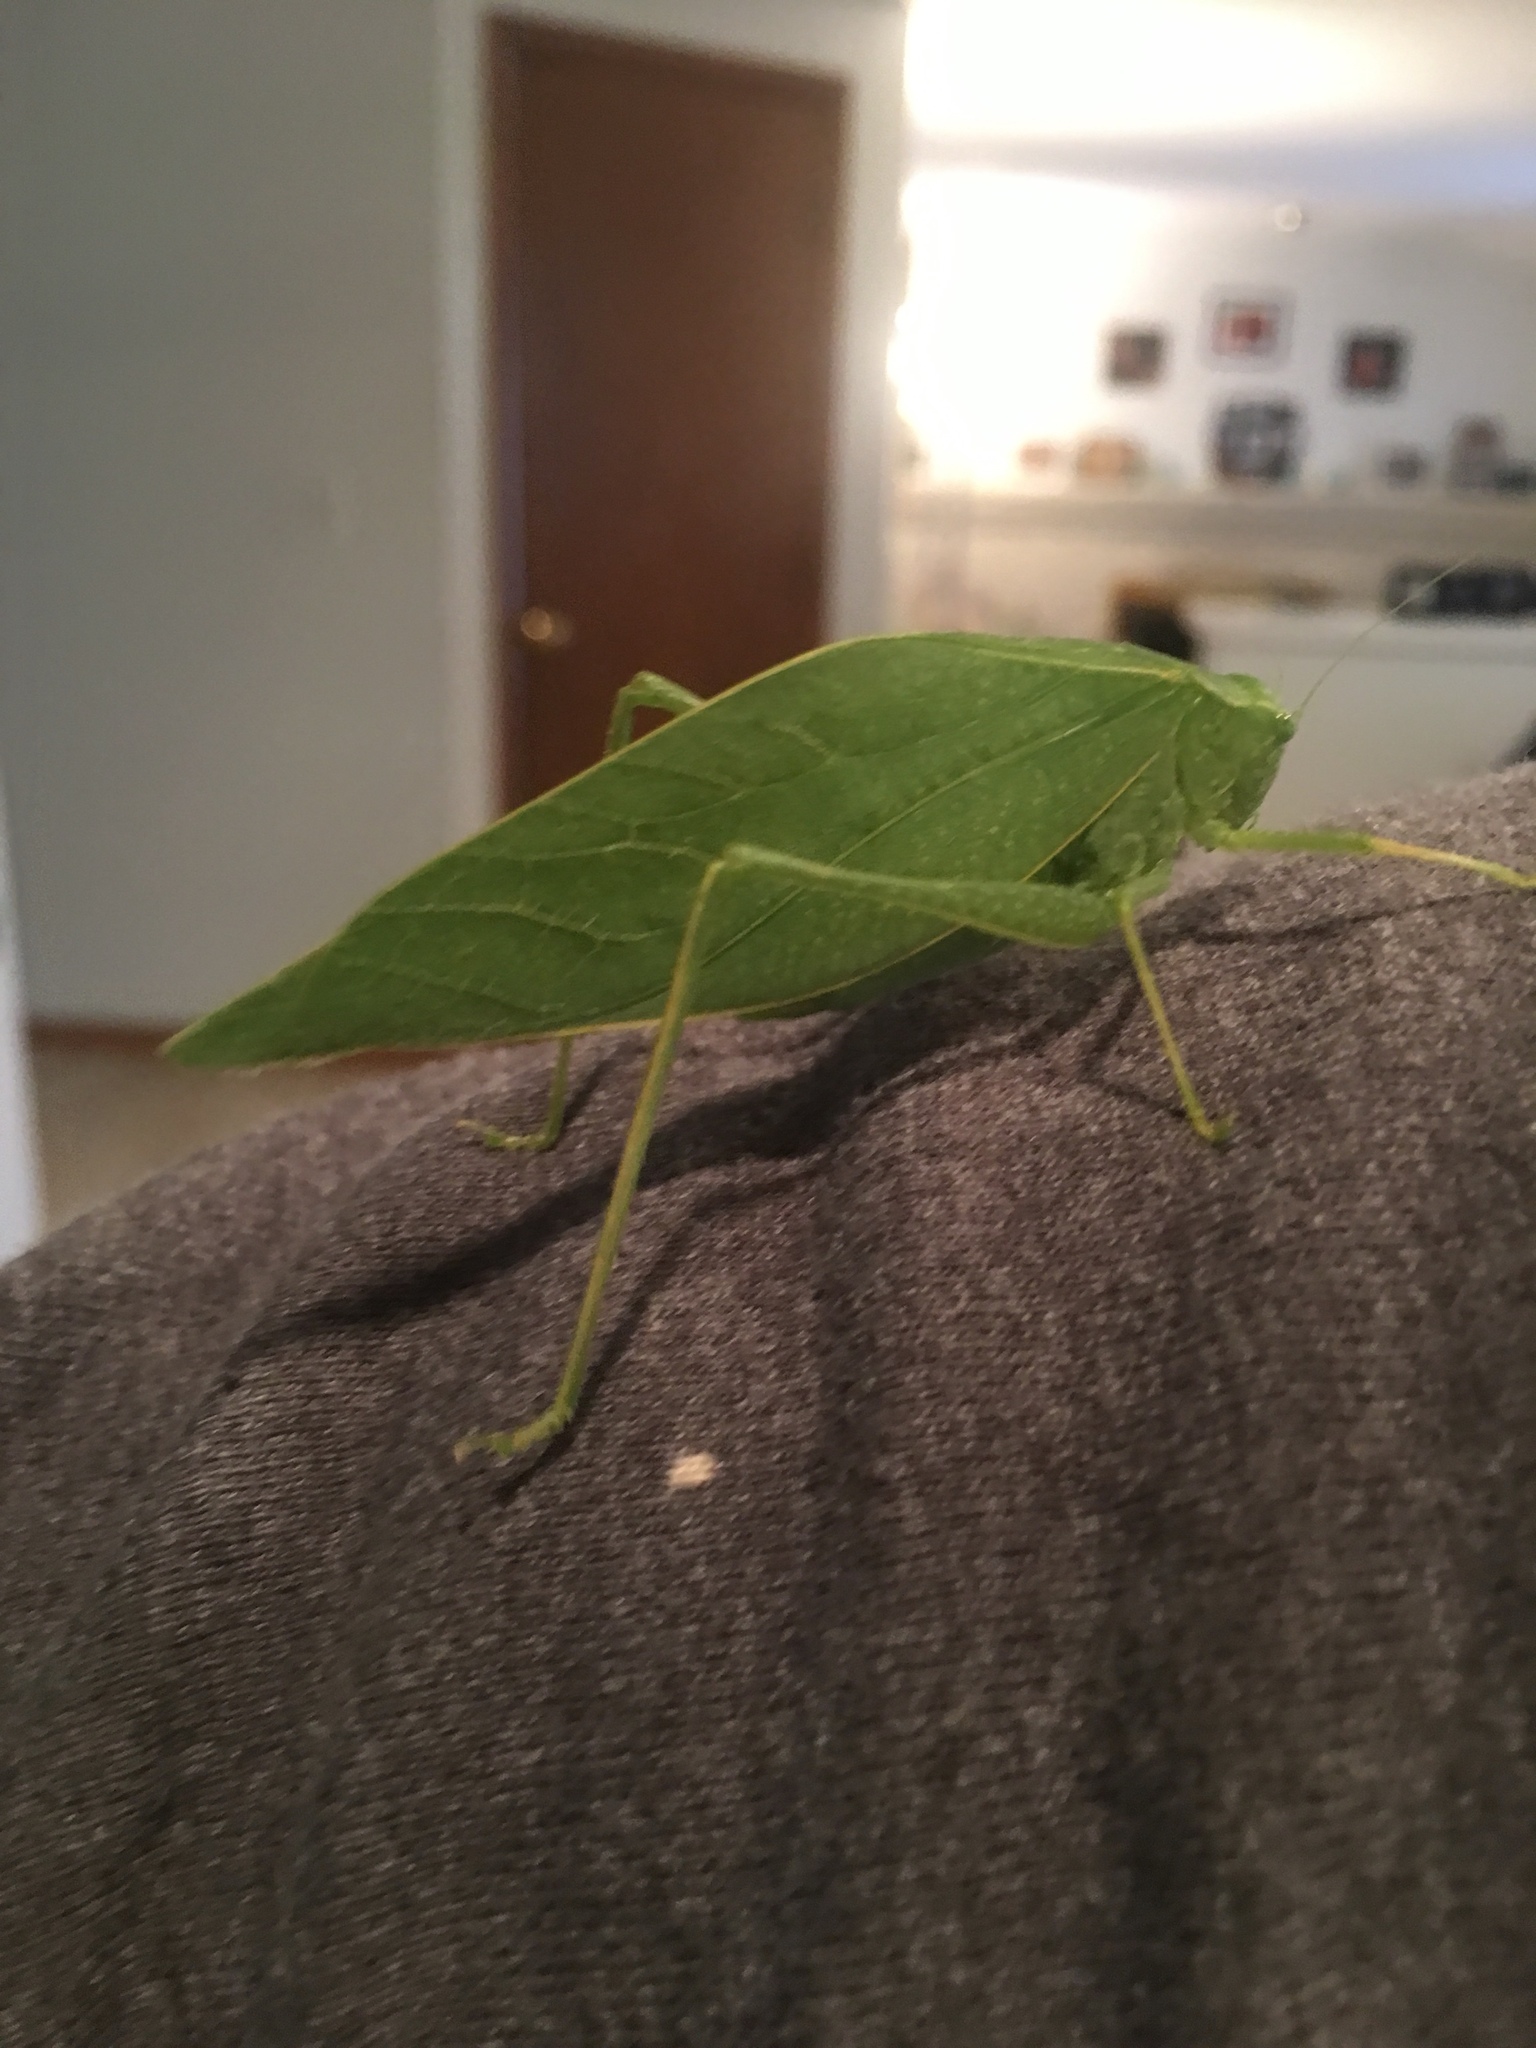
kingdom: Animalia
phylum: Arthropoda
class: Insecta
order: Orthoptera
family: Tettigoniidae
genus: Microcentrum
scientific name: Microcentrum rhombifolium
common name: Broad-winged katydid
